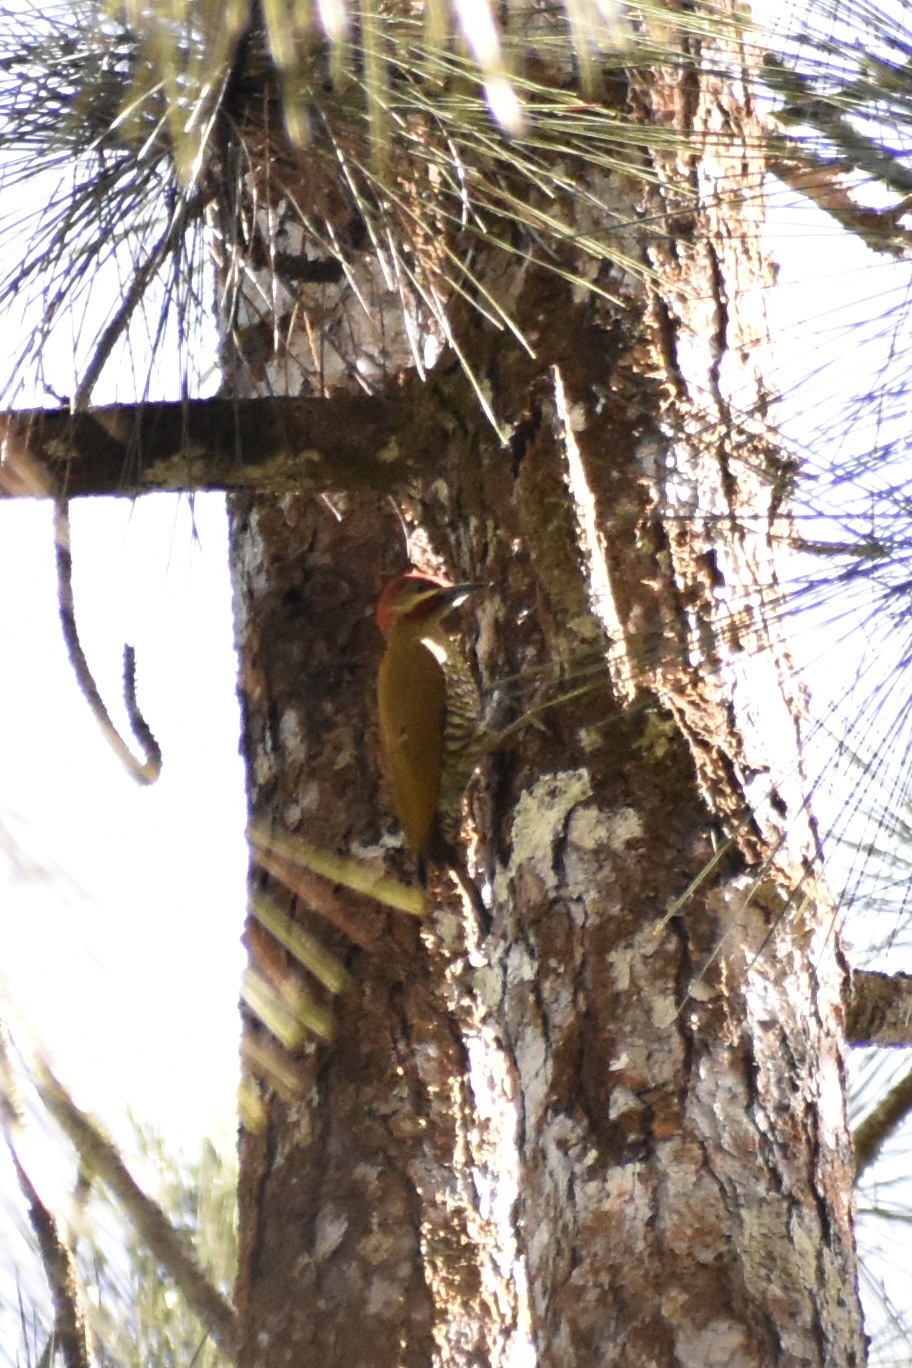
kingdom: Animalia
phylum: Chordata
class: Aves
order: Piciformes
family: Picidae
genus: Piculus
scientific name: Piculus callopterus
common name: Stripe-cheeked woodpecker
